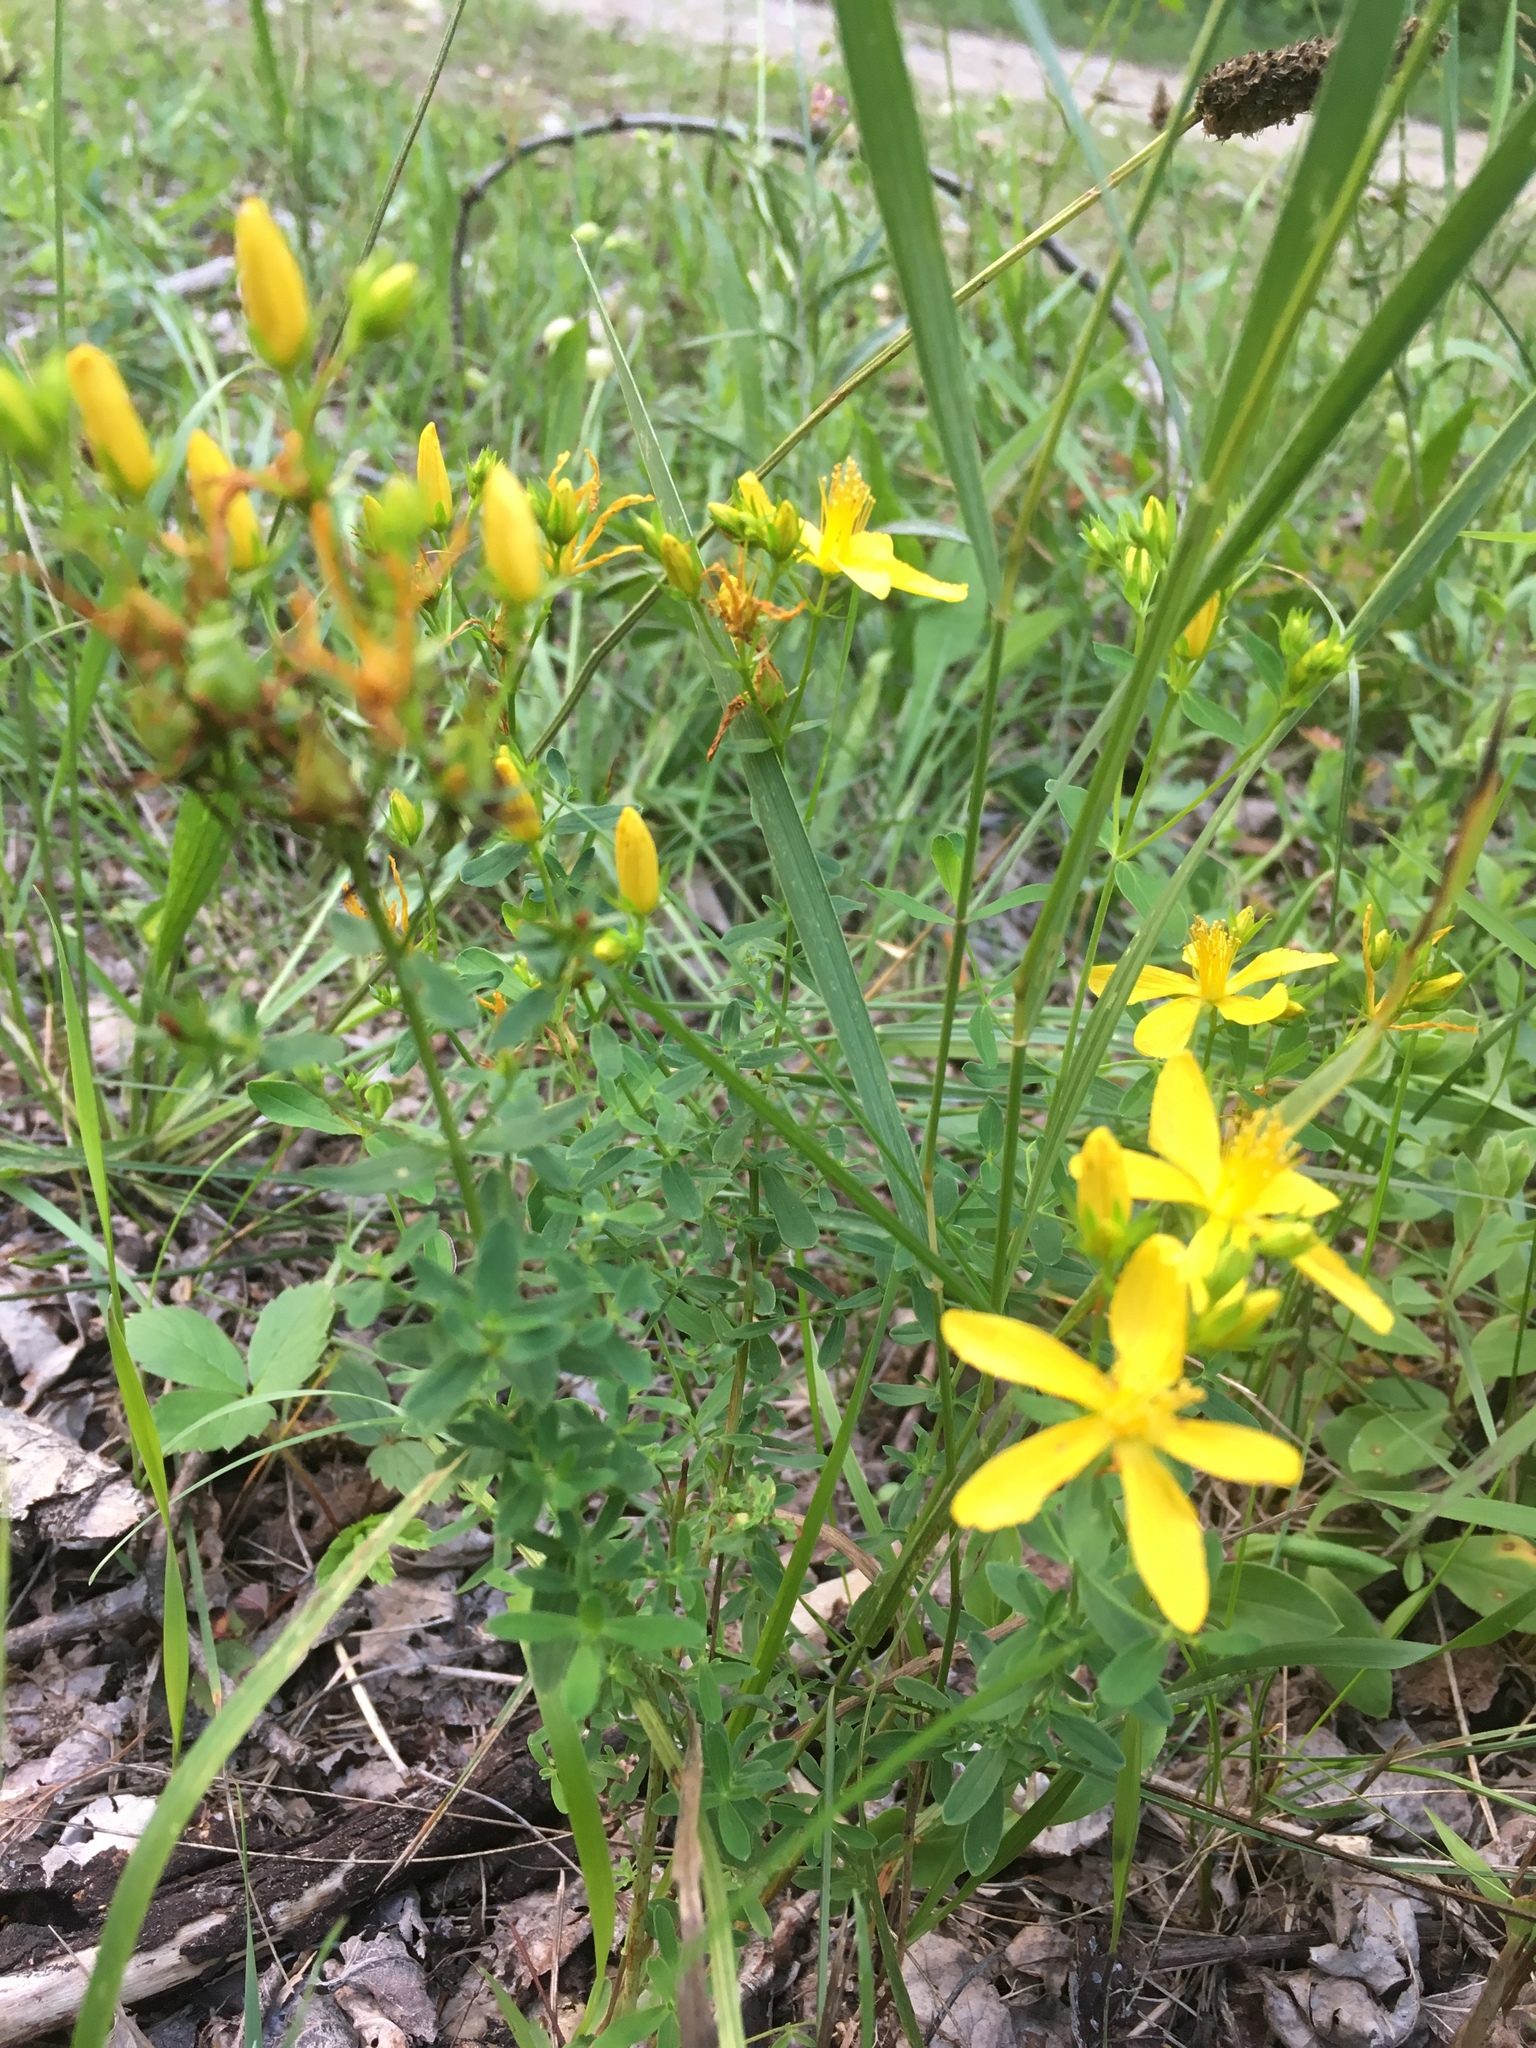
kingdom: Plantae
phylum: Tracheophyta
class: Magnoliopsida
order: Malpighiales
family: Hypericaceae
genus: Hypericum
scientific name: Hypericum perforatum
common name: Common st. johnswort
